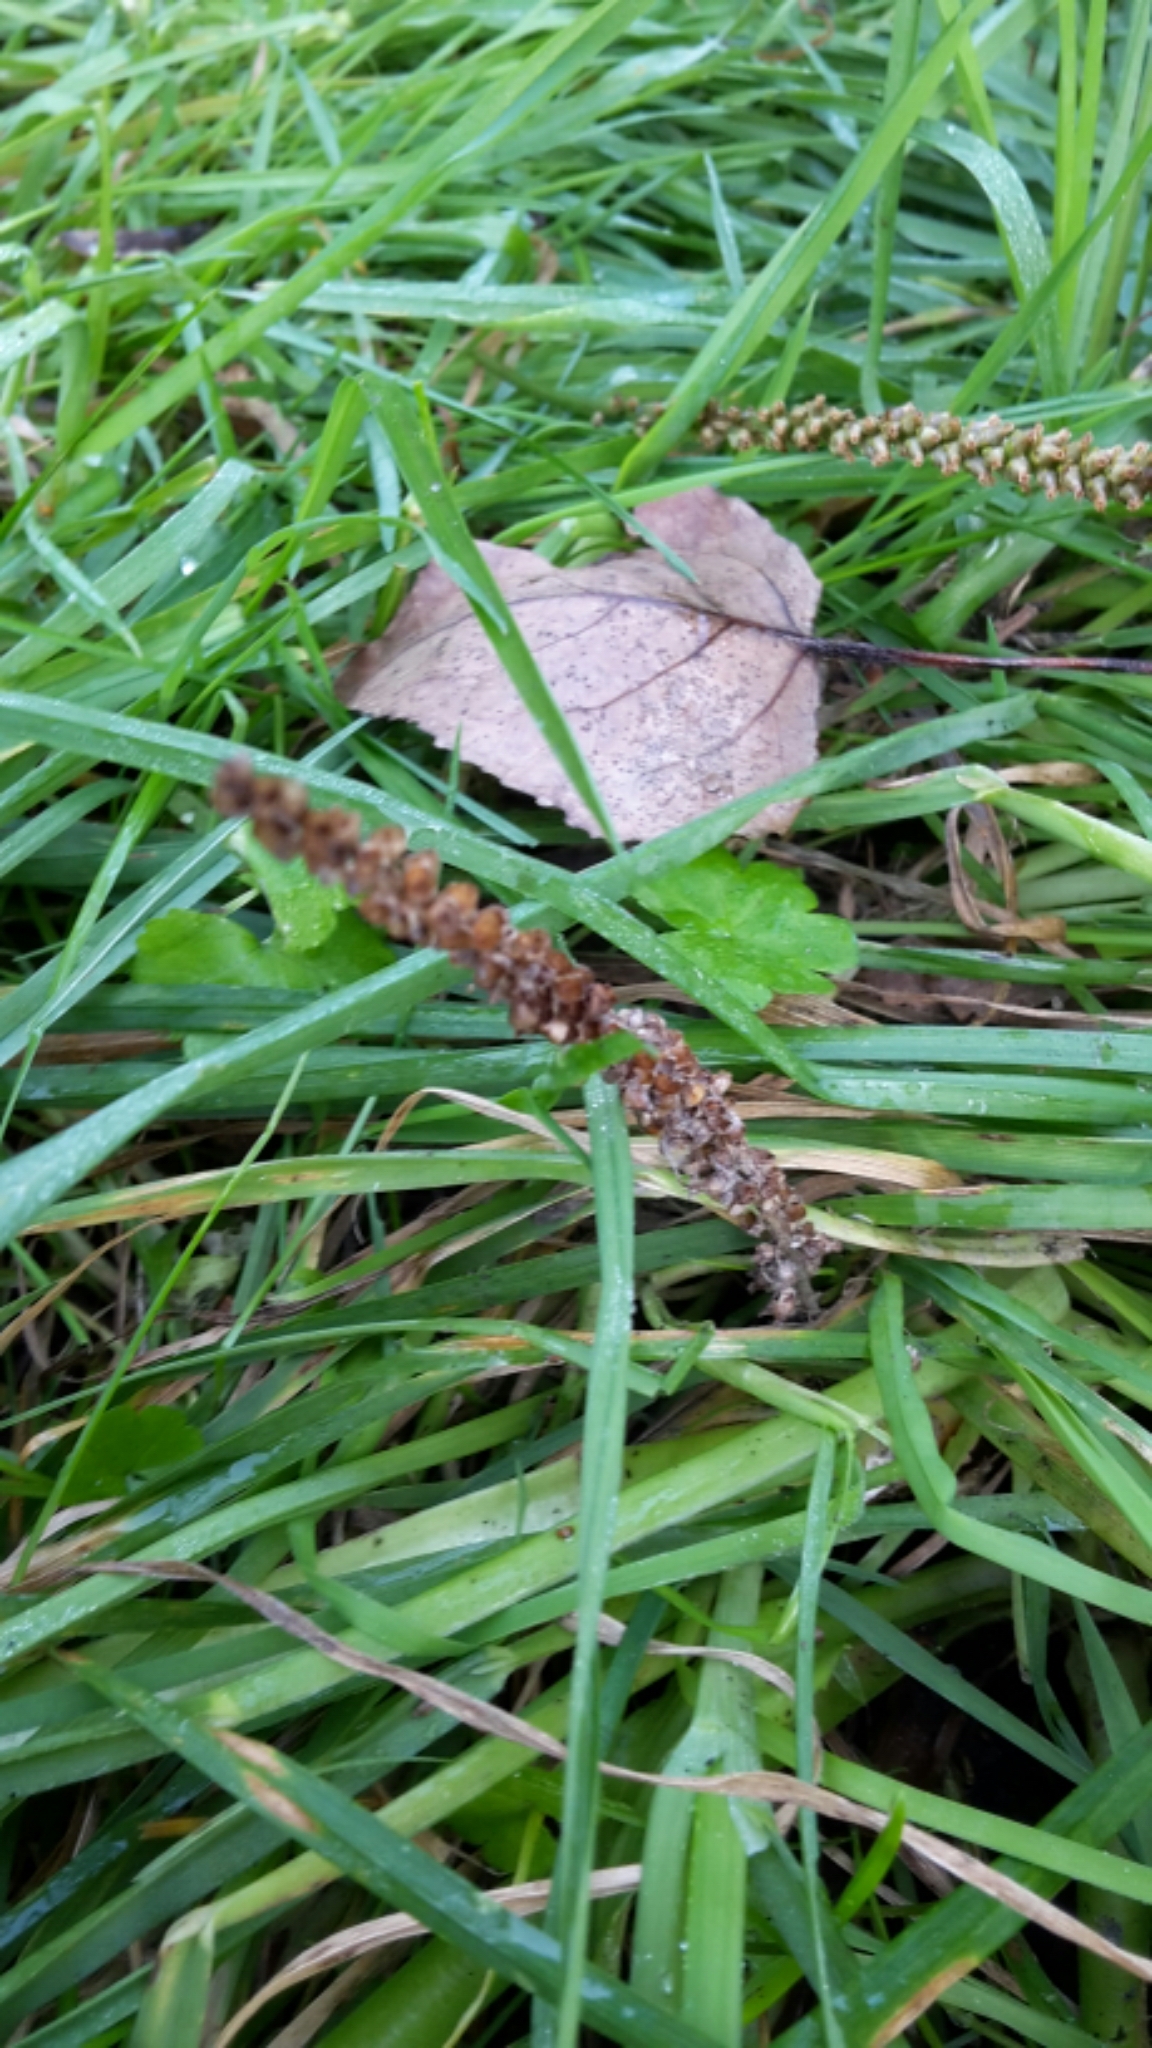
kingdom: Plantae
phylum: Tracheophyta
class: Magnoliopsida
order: Lamiales
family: Plantaginaceae
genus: Plantago
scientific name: Plantago major
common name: Common plantain
